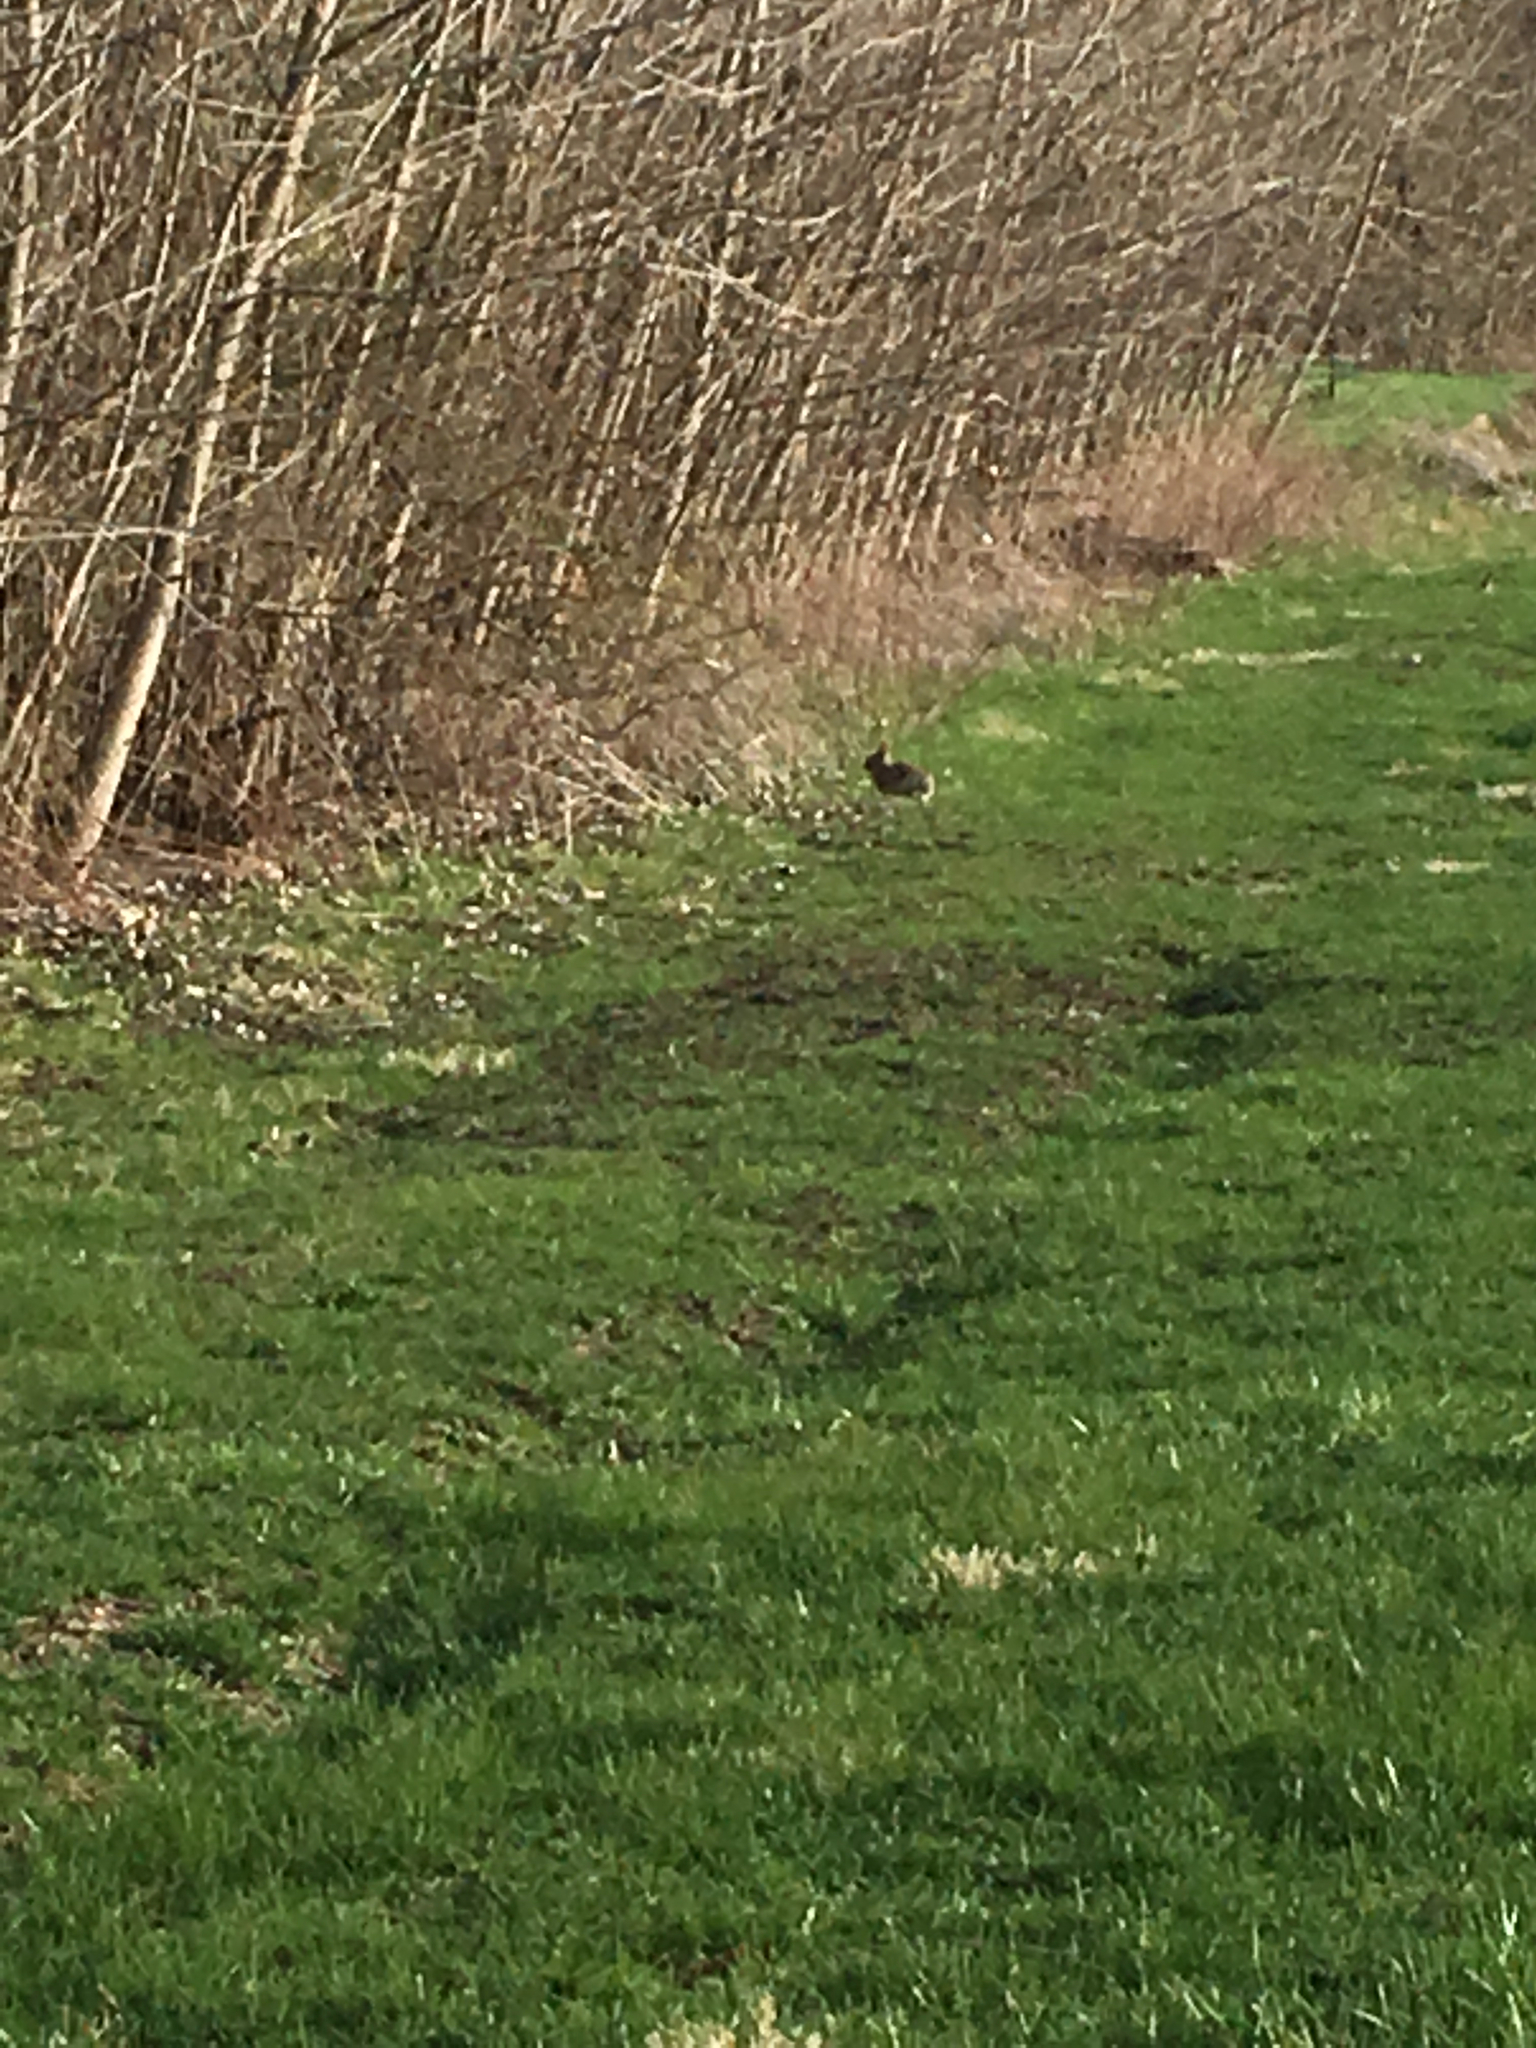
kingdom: Animalia
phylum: Chordata
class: Mammalia
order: Lagomorpha
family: Leporidae
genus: Sylvilagus
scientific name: Sylvilagus floridanus
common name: Eastern cottontail
